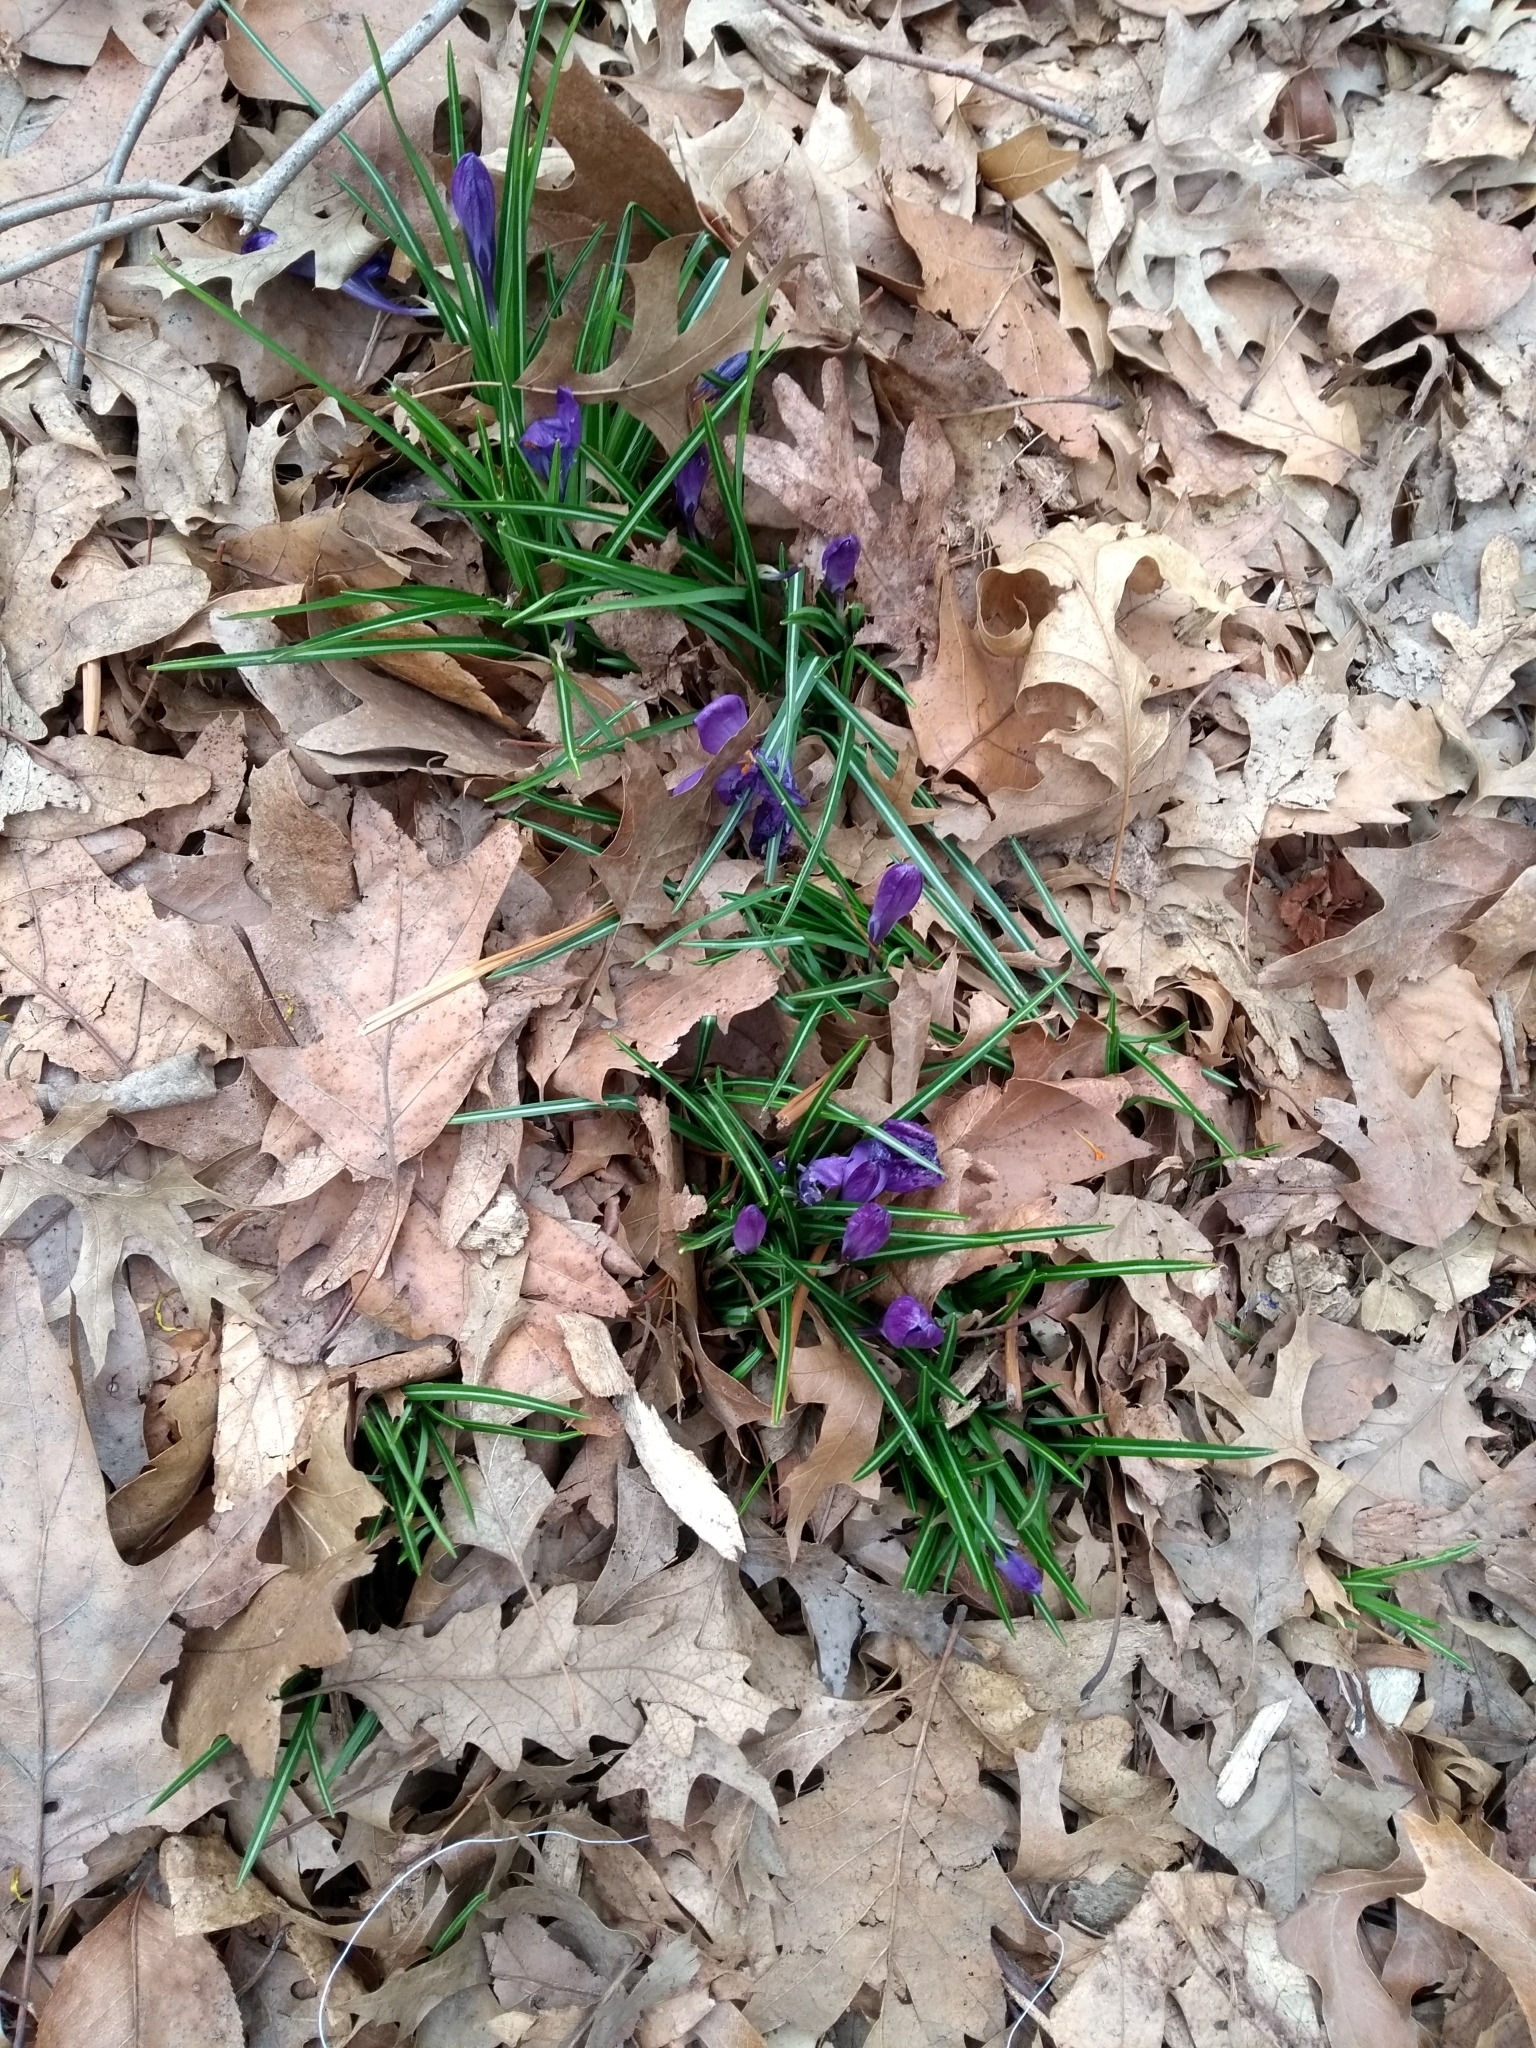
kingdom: Plantae
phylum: Tracheophyta
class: Liliopsida
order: Asparagales
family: Iridaceae
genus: Crocus
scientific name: Crocus
